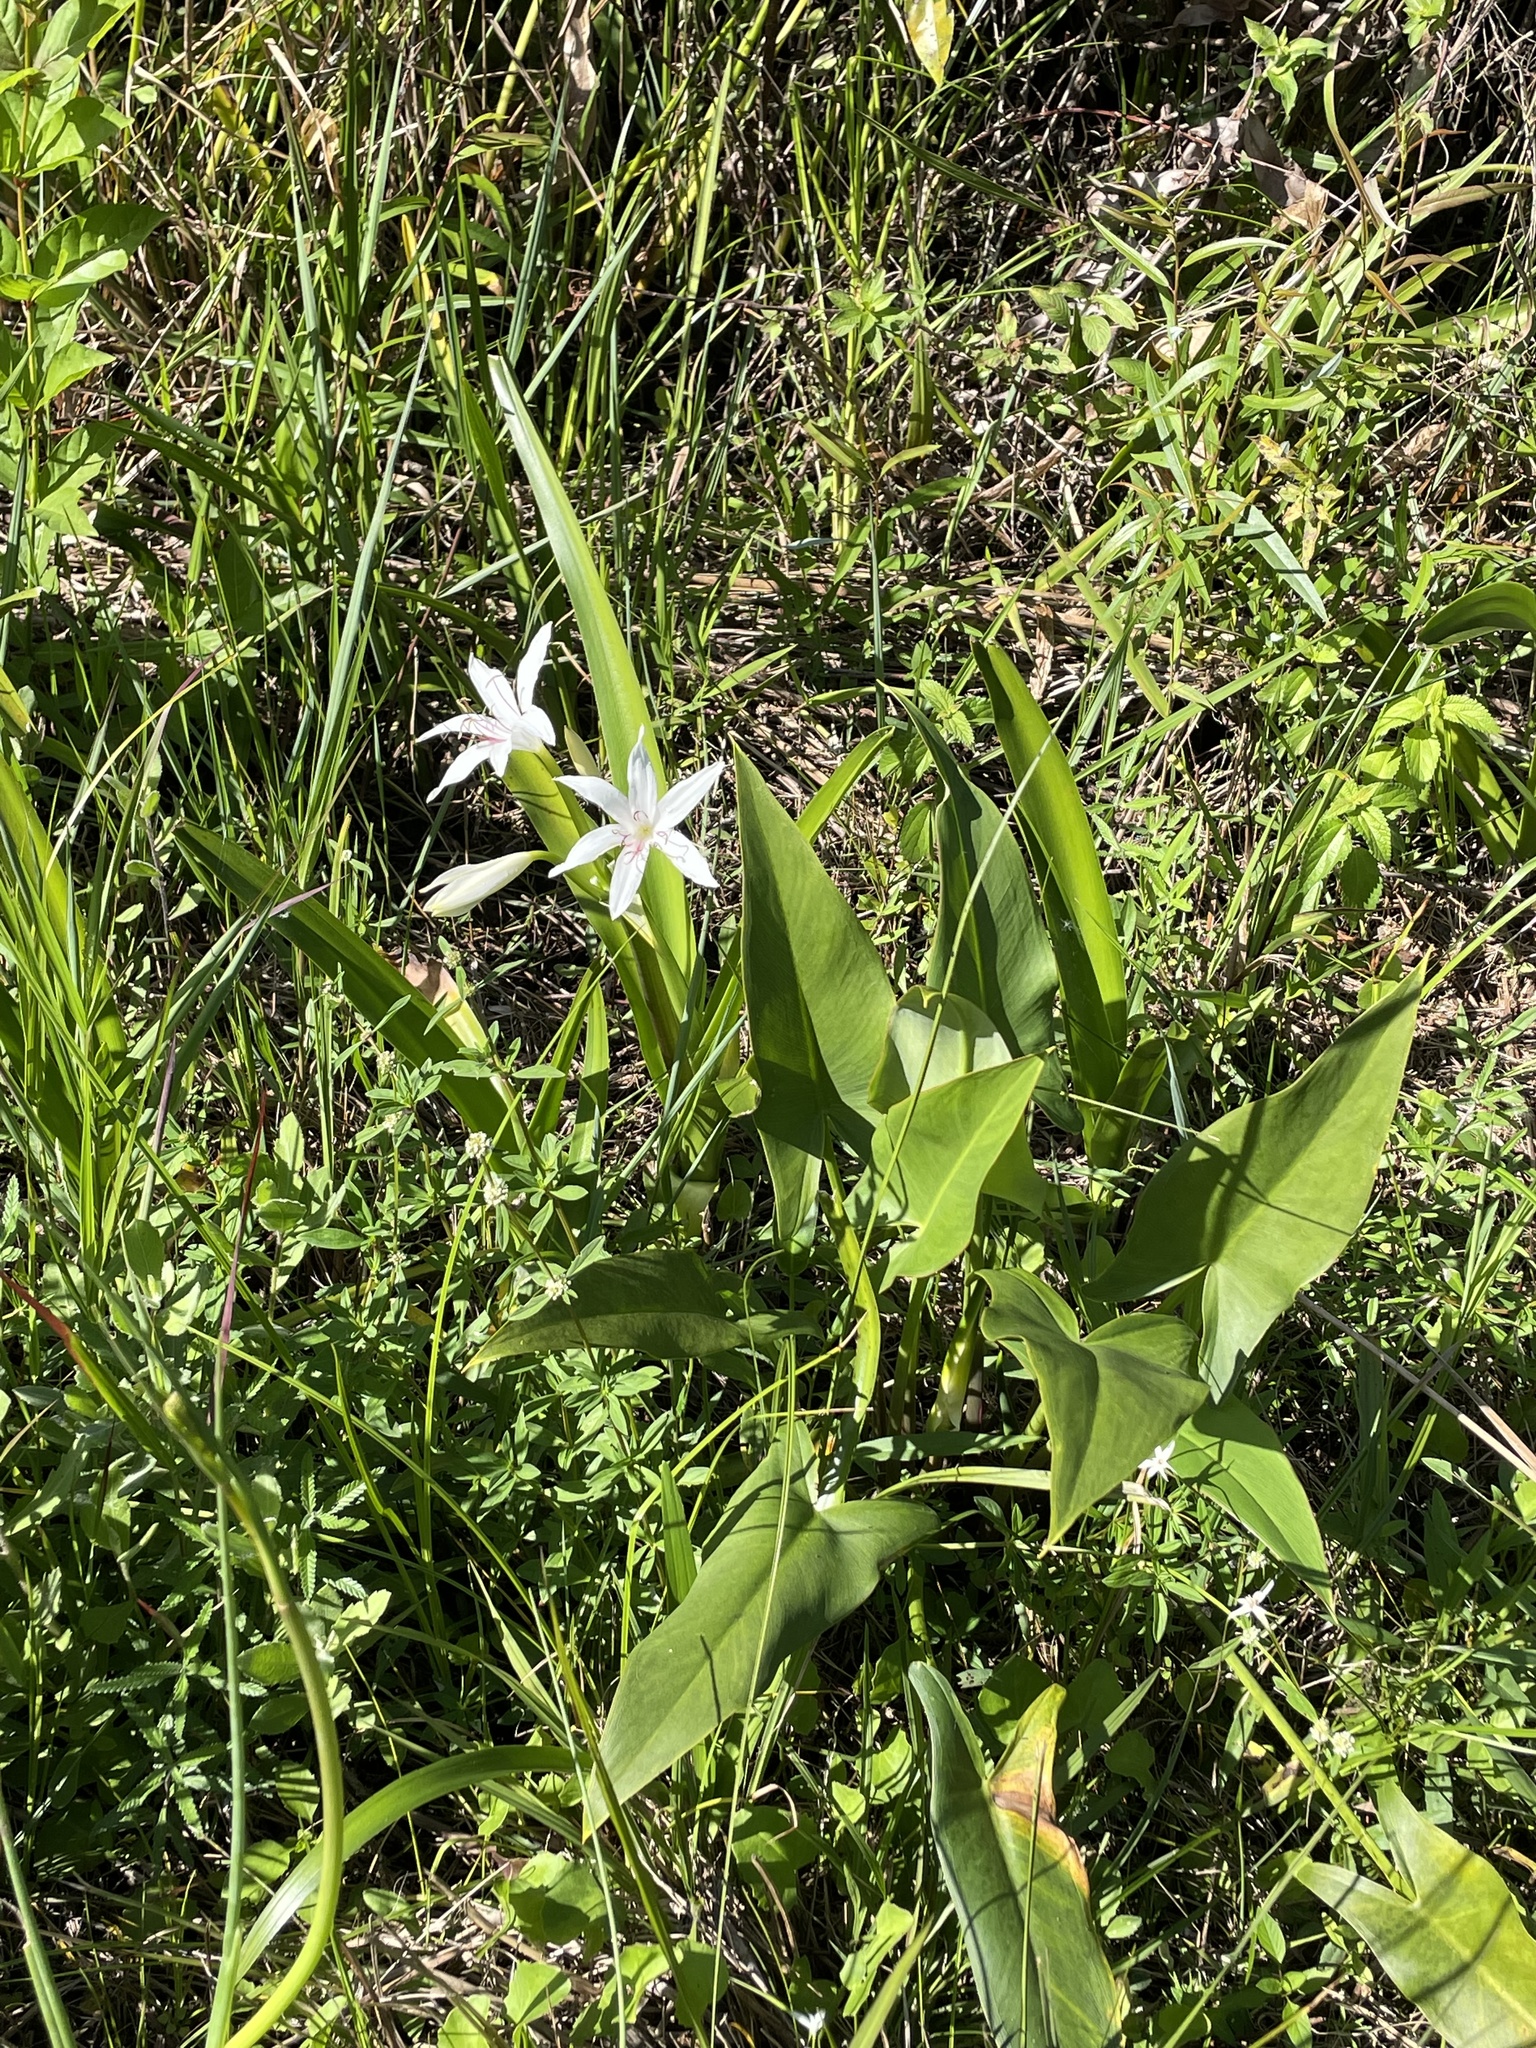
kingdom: Plantae
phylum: Tracheophyta
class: Liliopsida
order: Asparagales
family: Amaryllidaceae
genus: Crinum
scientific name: Crinum americanum
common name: Florida swamp-lily
